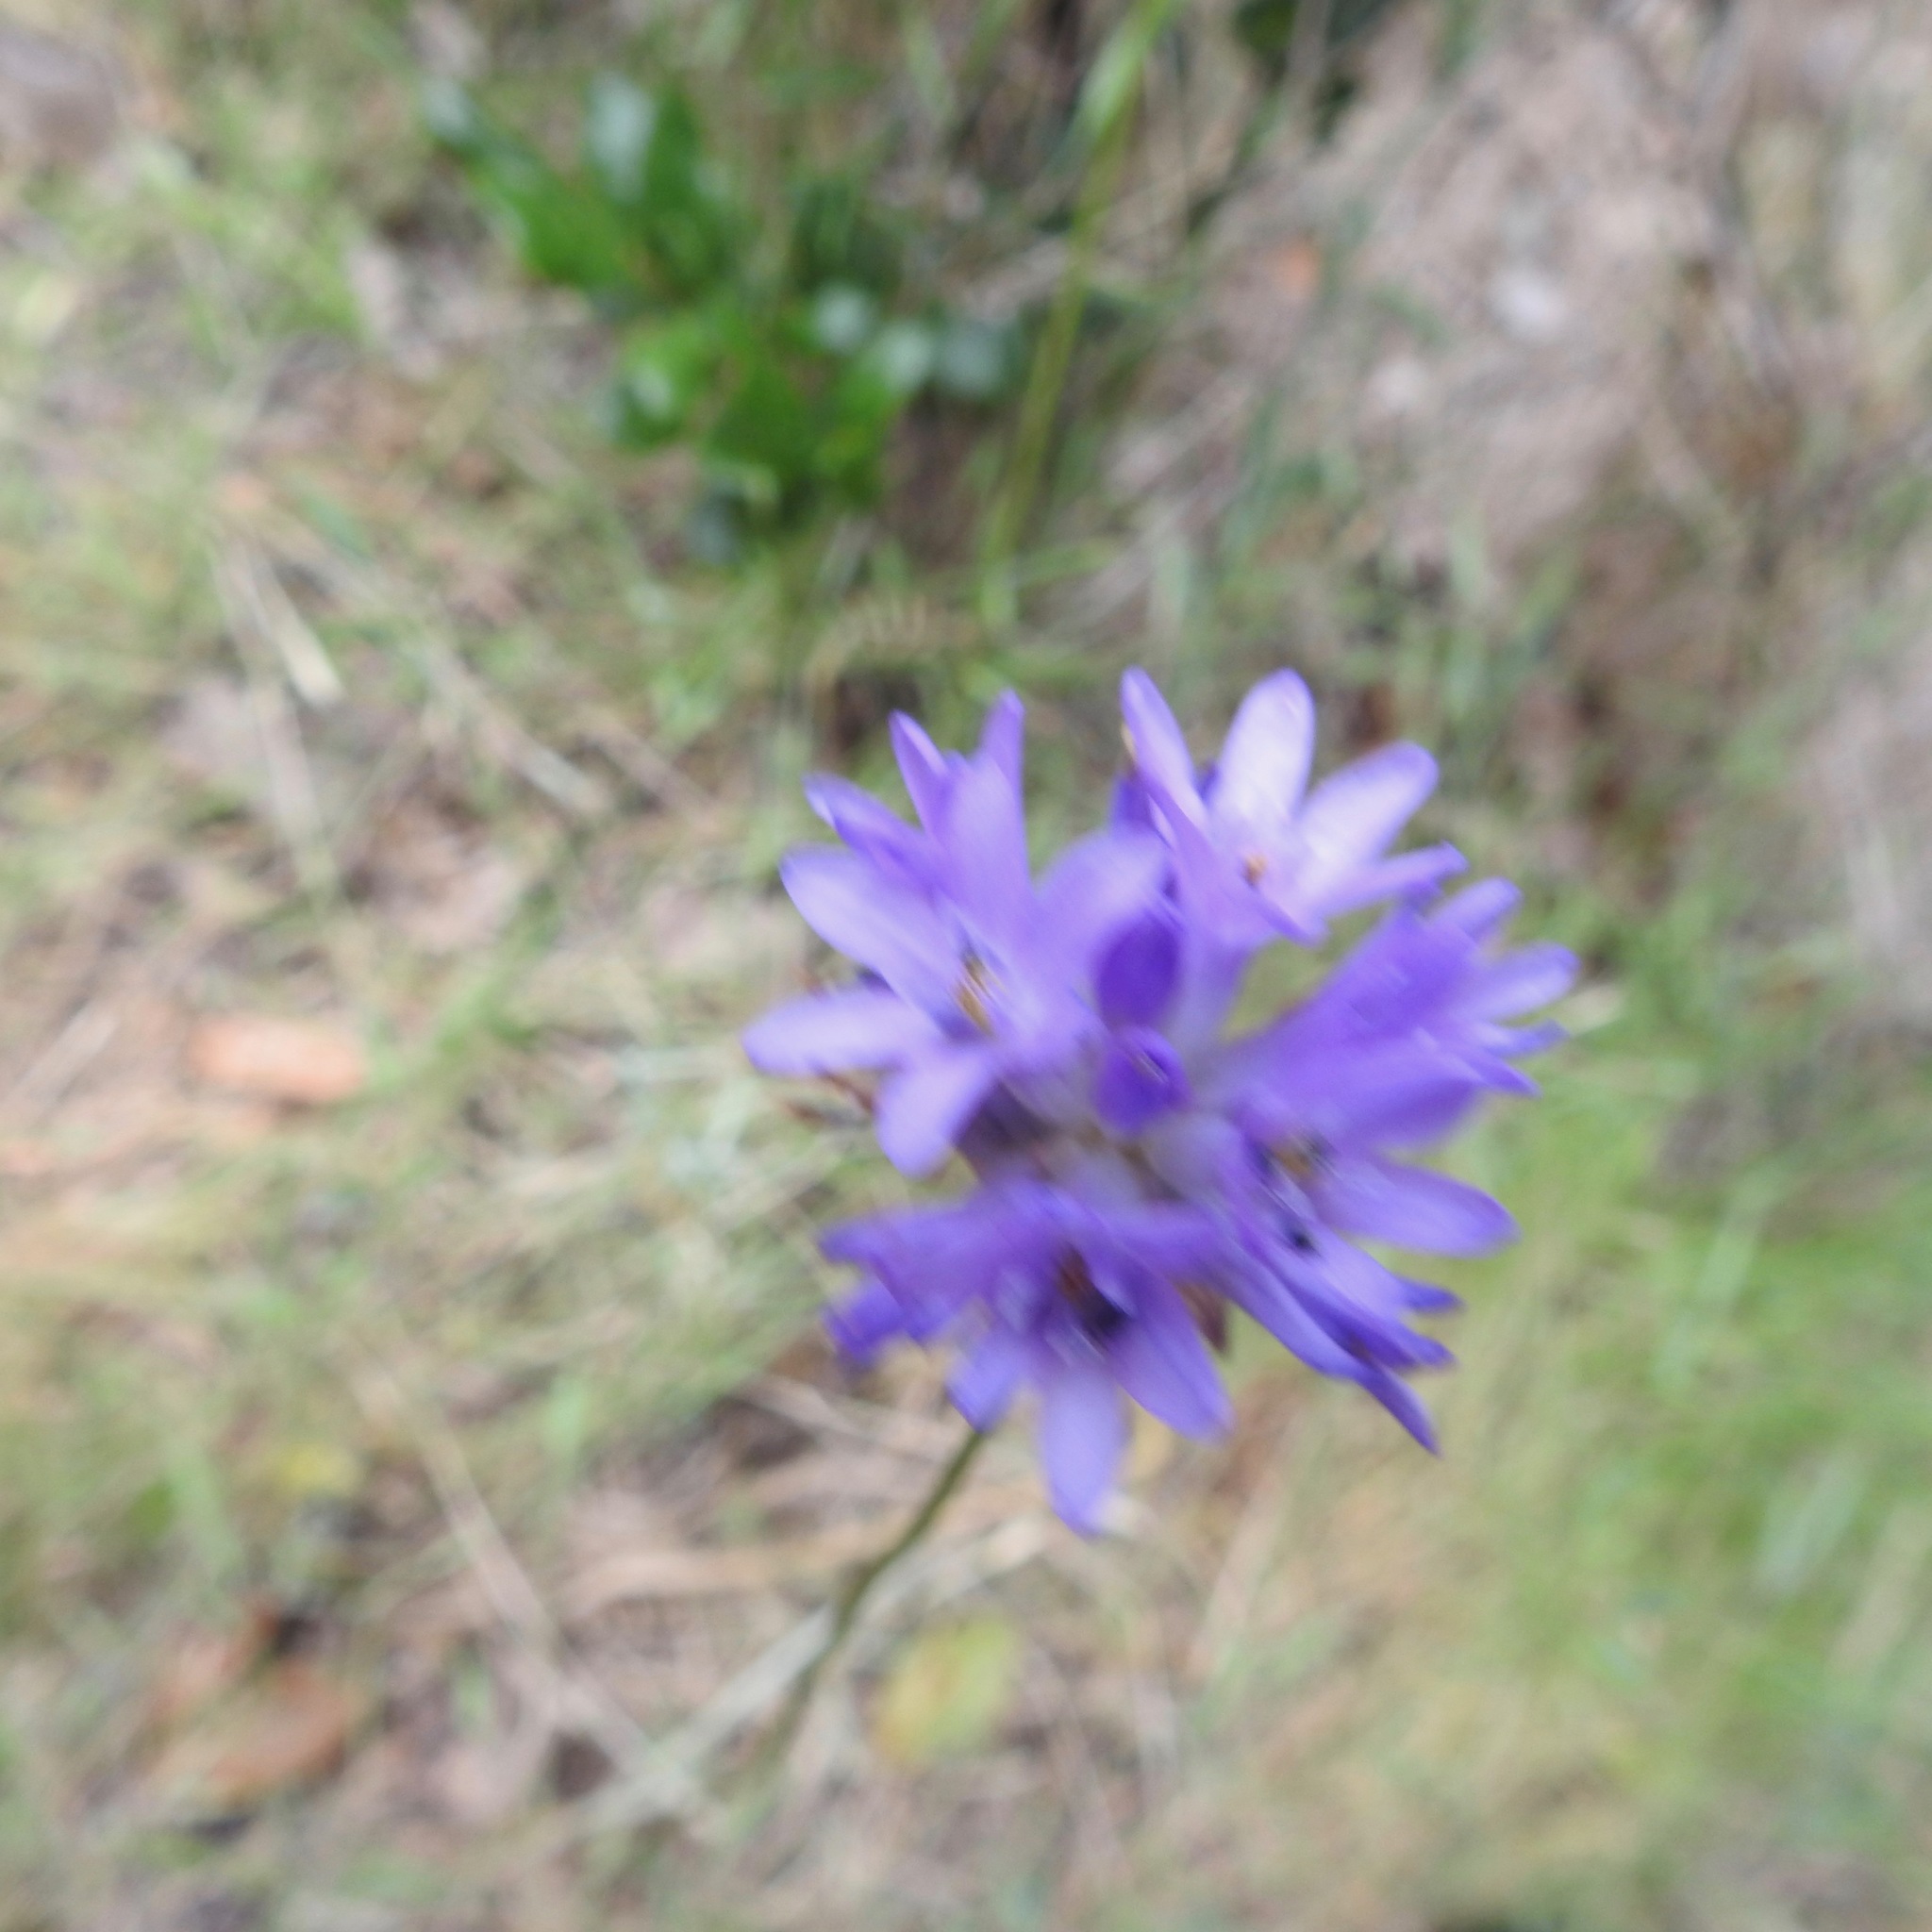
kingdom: Plantae
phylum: Tracheophyta
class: Liliopsida
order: Asparagales
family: Asparagaceae
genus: Dichelostemma
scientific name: Dichelostemma congestum
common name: Fork-tooth ookow
